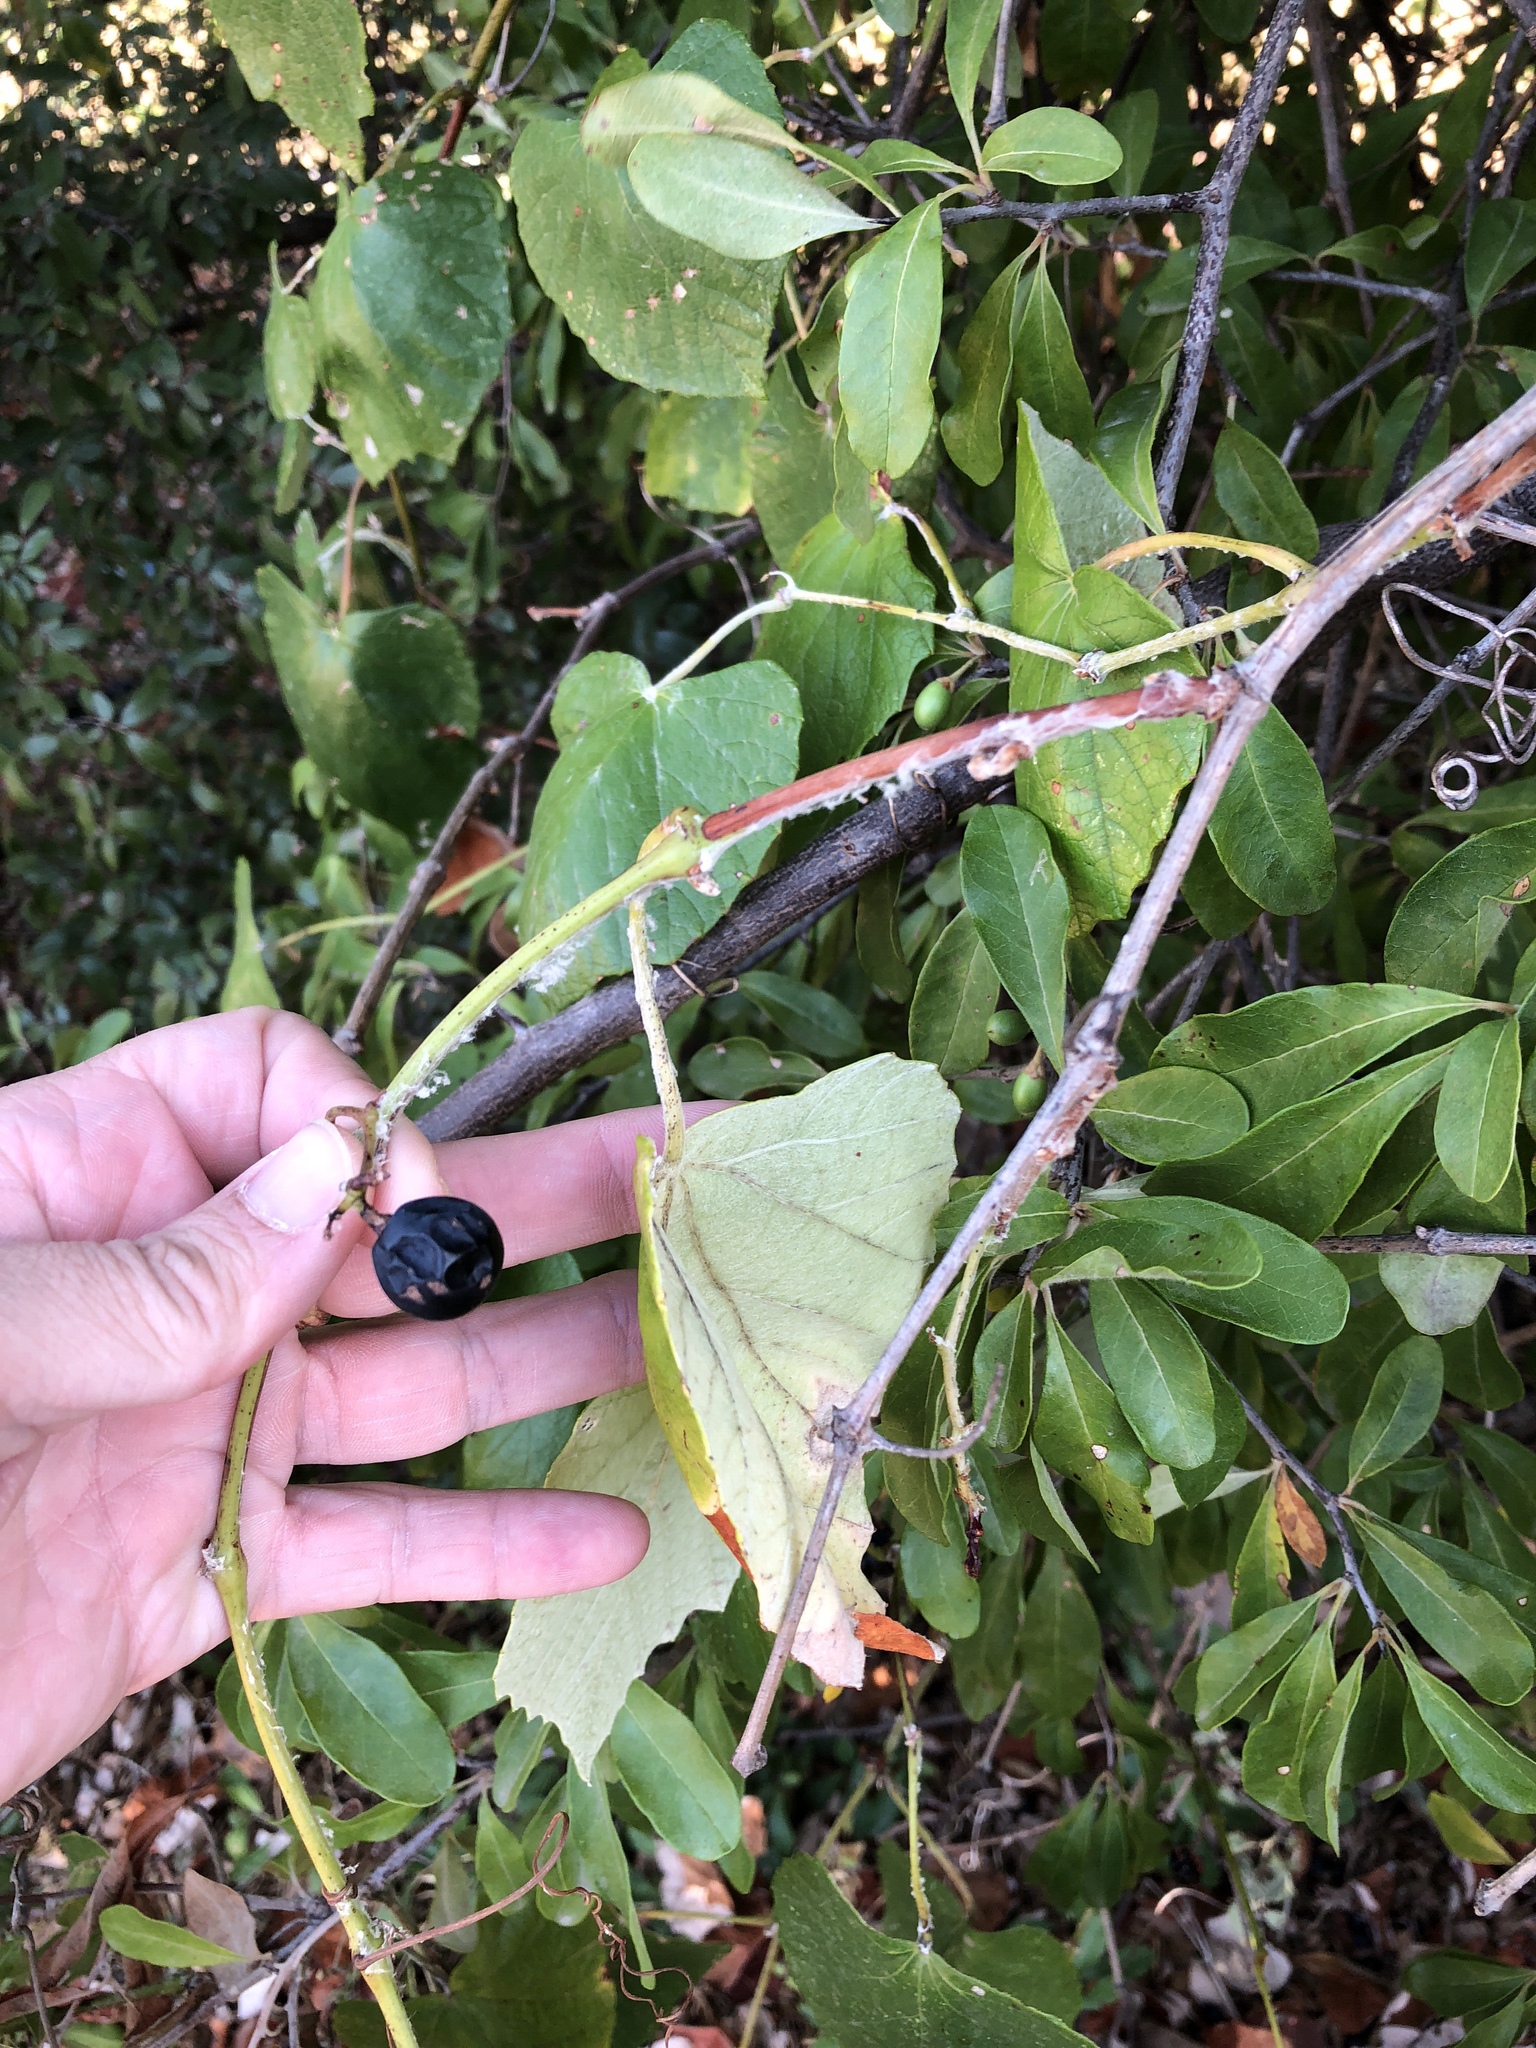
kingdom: Plantae
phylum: Tracheophyta
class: Magnoliopsida
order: Vitales
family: Vitaceae
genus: Vitis
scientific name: Vitis mustangensis
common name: Mustang grape
